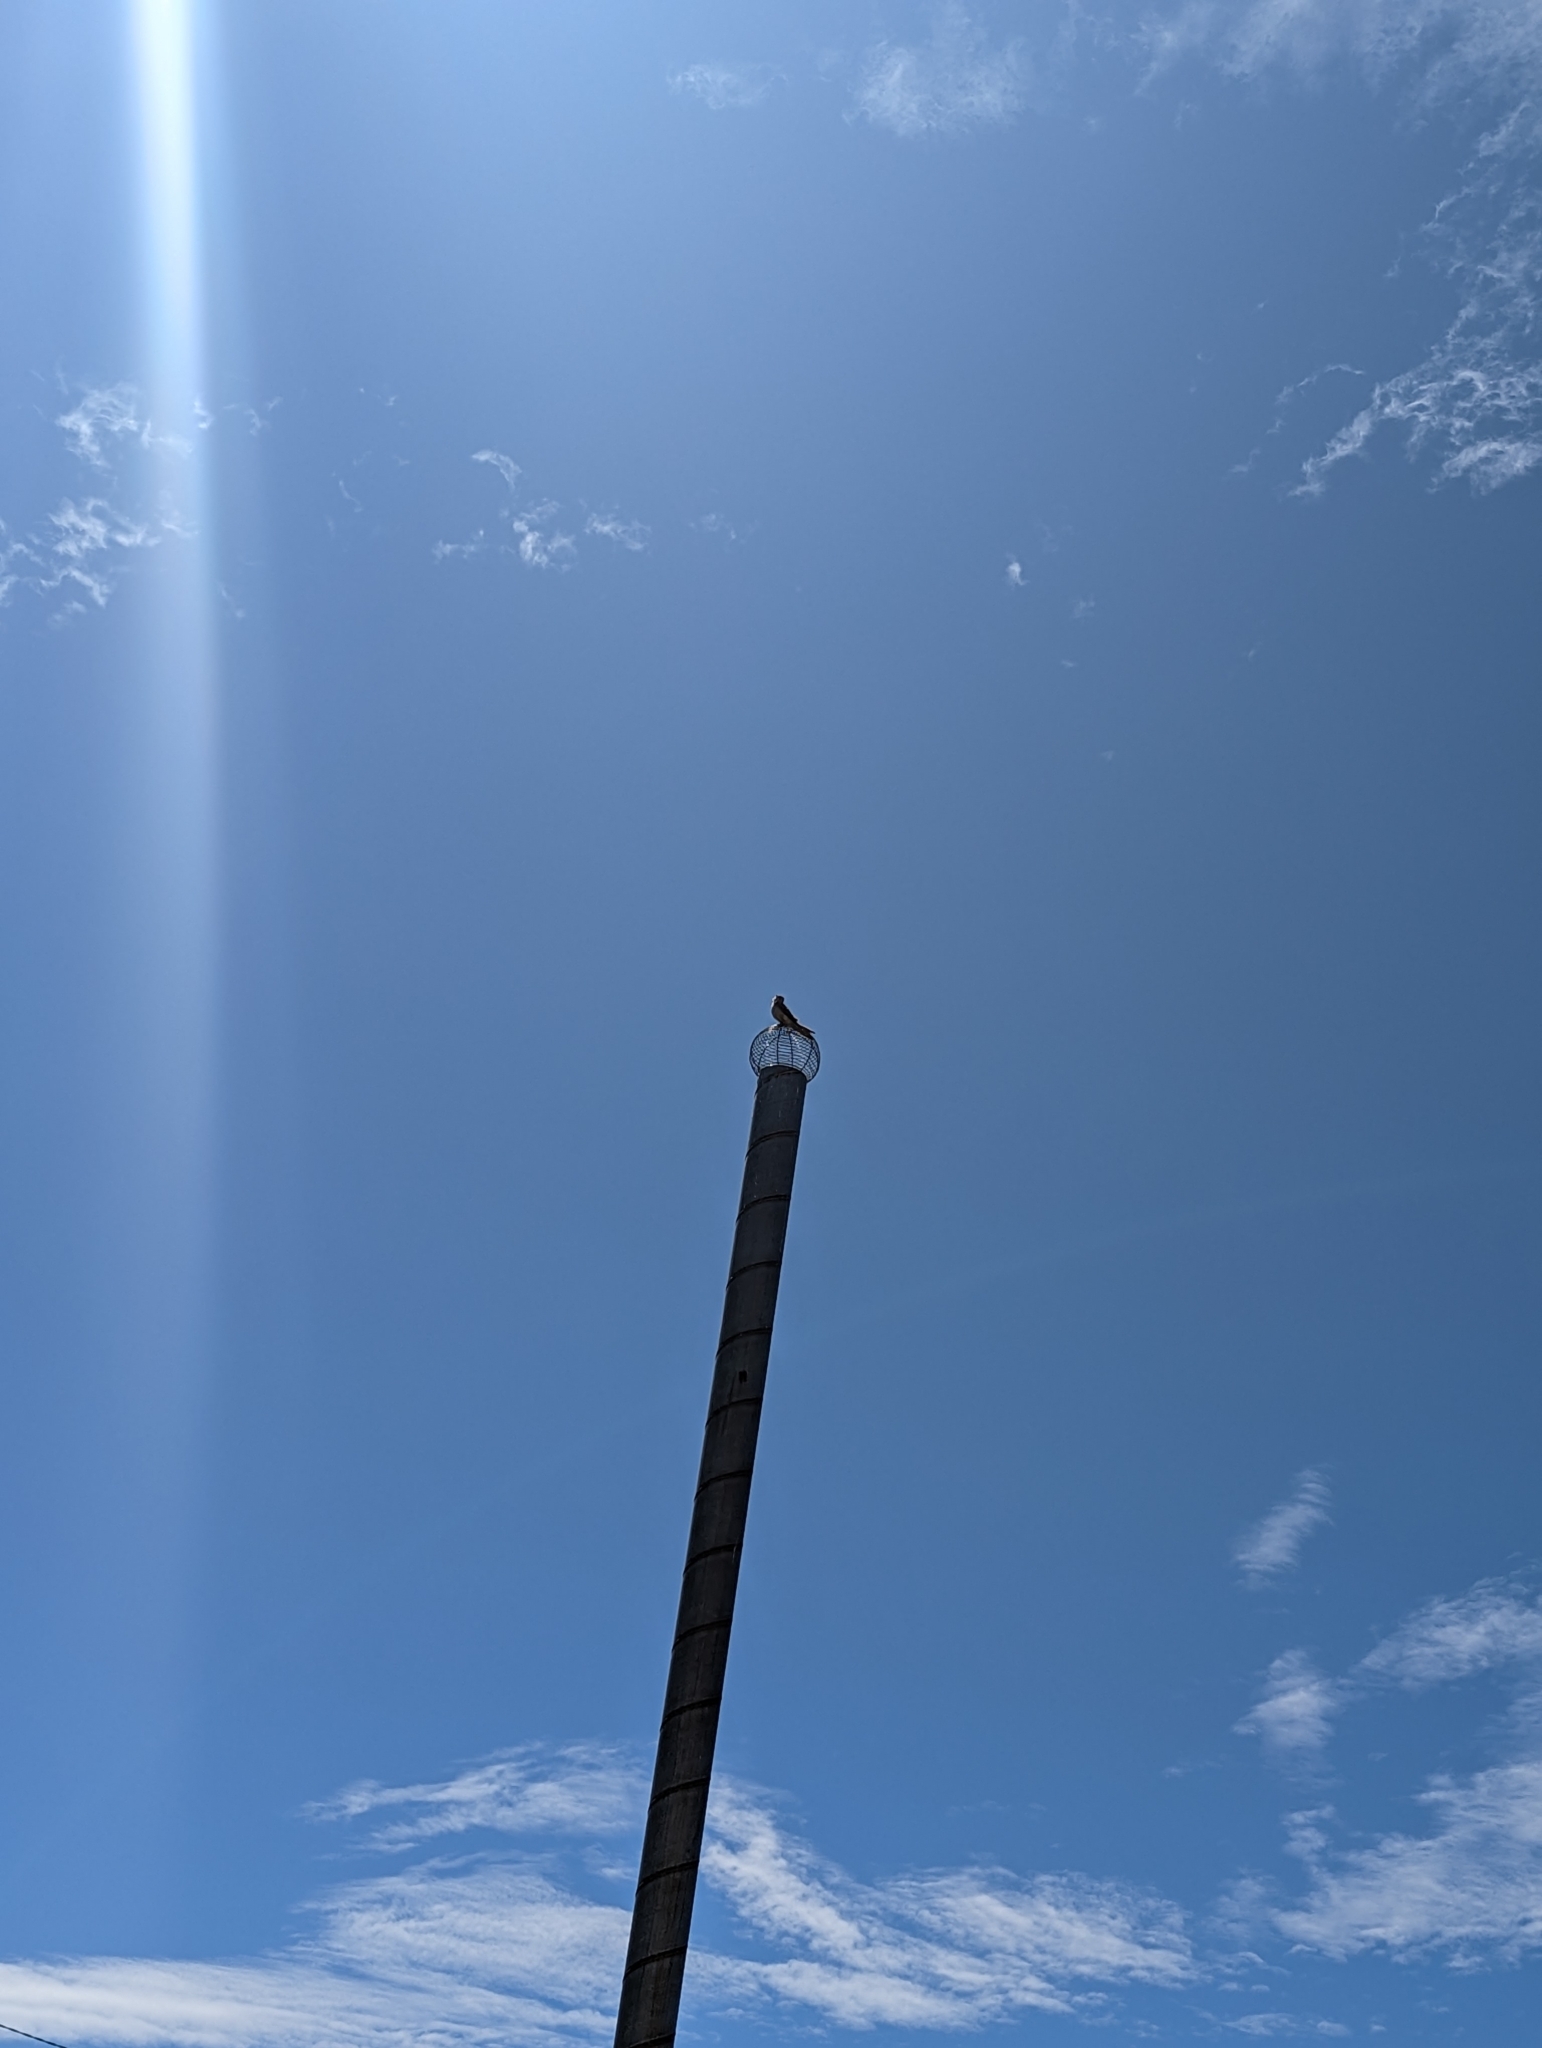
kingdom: Animalia
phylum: Chordata
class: Aves
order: Falconiformes
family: Falconidae
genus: Falco
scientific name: Falco cenchroides
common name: Nankeen kestrel
